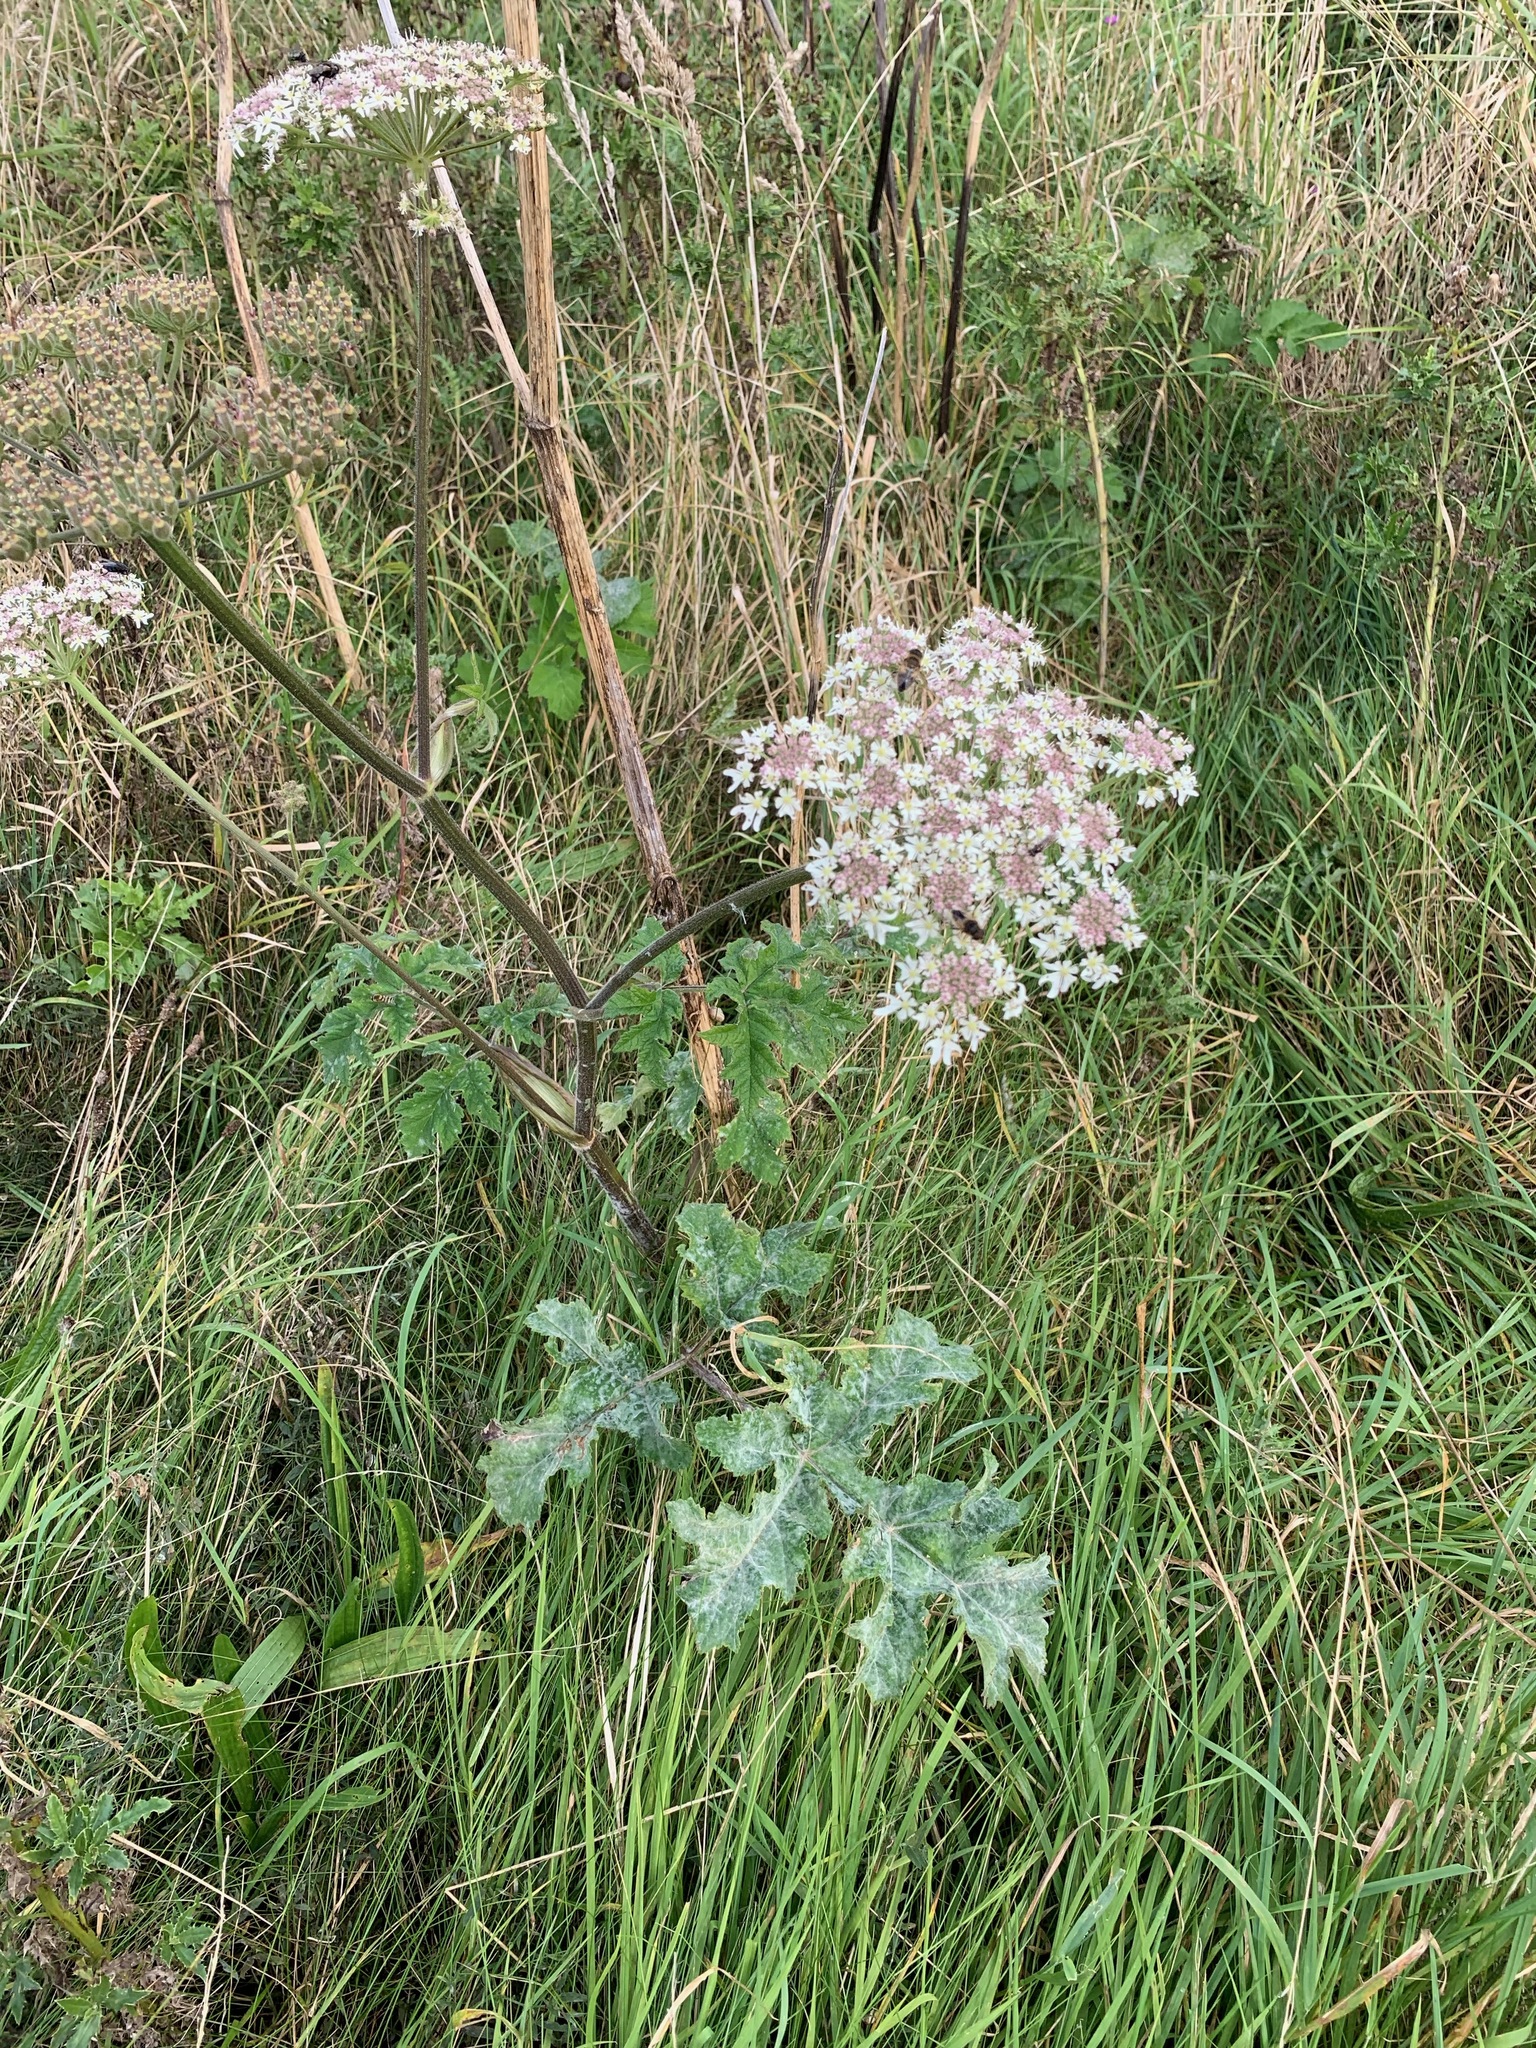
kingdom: Plantae
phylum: Tracheophyta
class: Magnoliopsida
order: Apiales
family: Apiaceae
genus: Heracleum
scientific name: Heracleum sphondylium
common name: Hogweed
